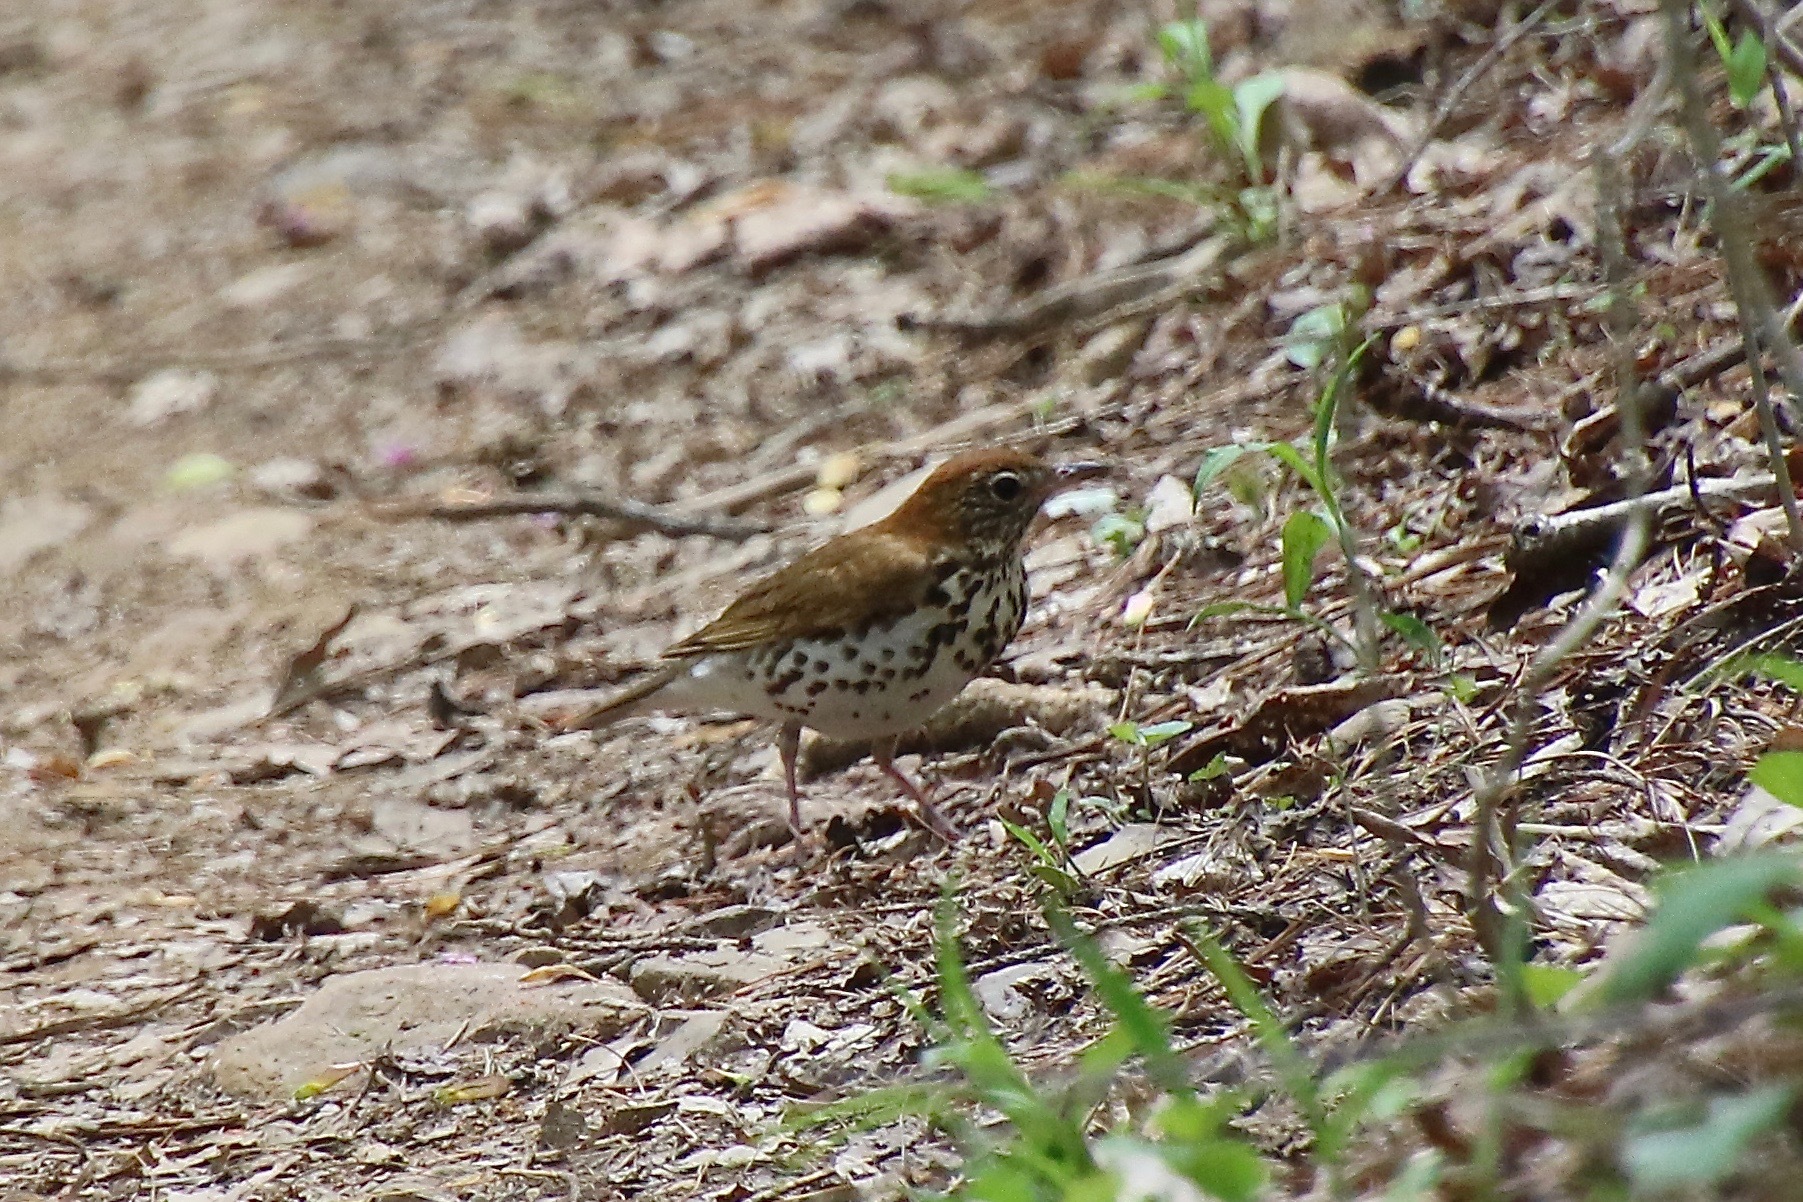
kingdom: Animalia
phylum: Chordata
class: Aves
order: Passeriformes
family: Turdidae
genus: Hylocichla
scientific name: Hylocichla mustelina
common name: Wood thrush
